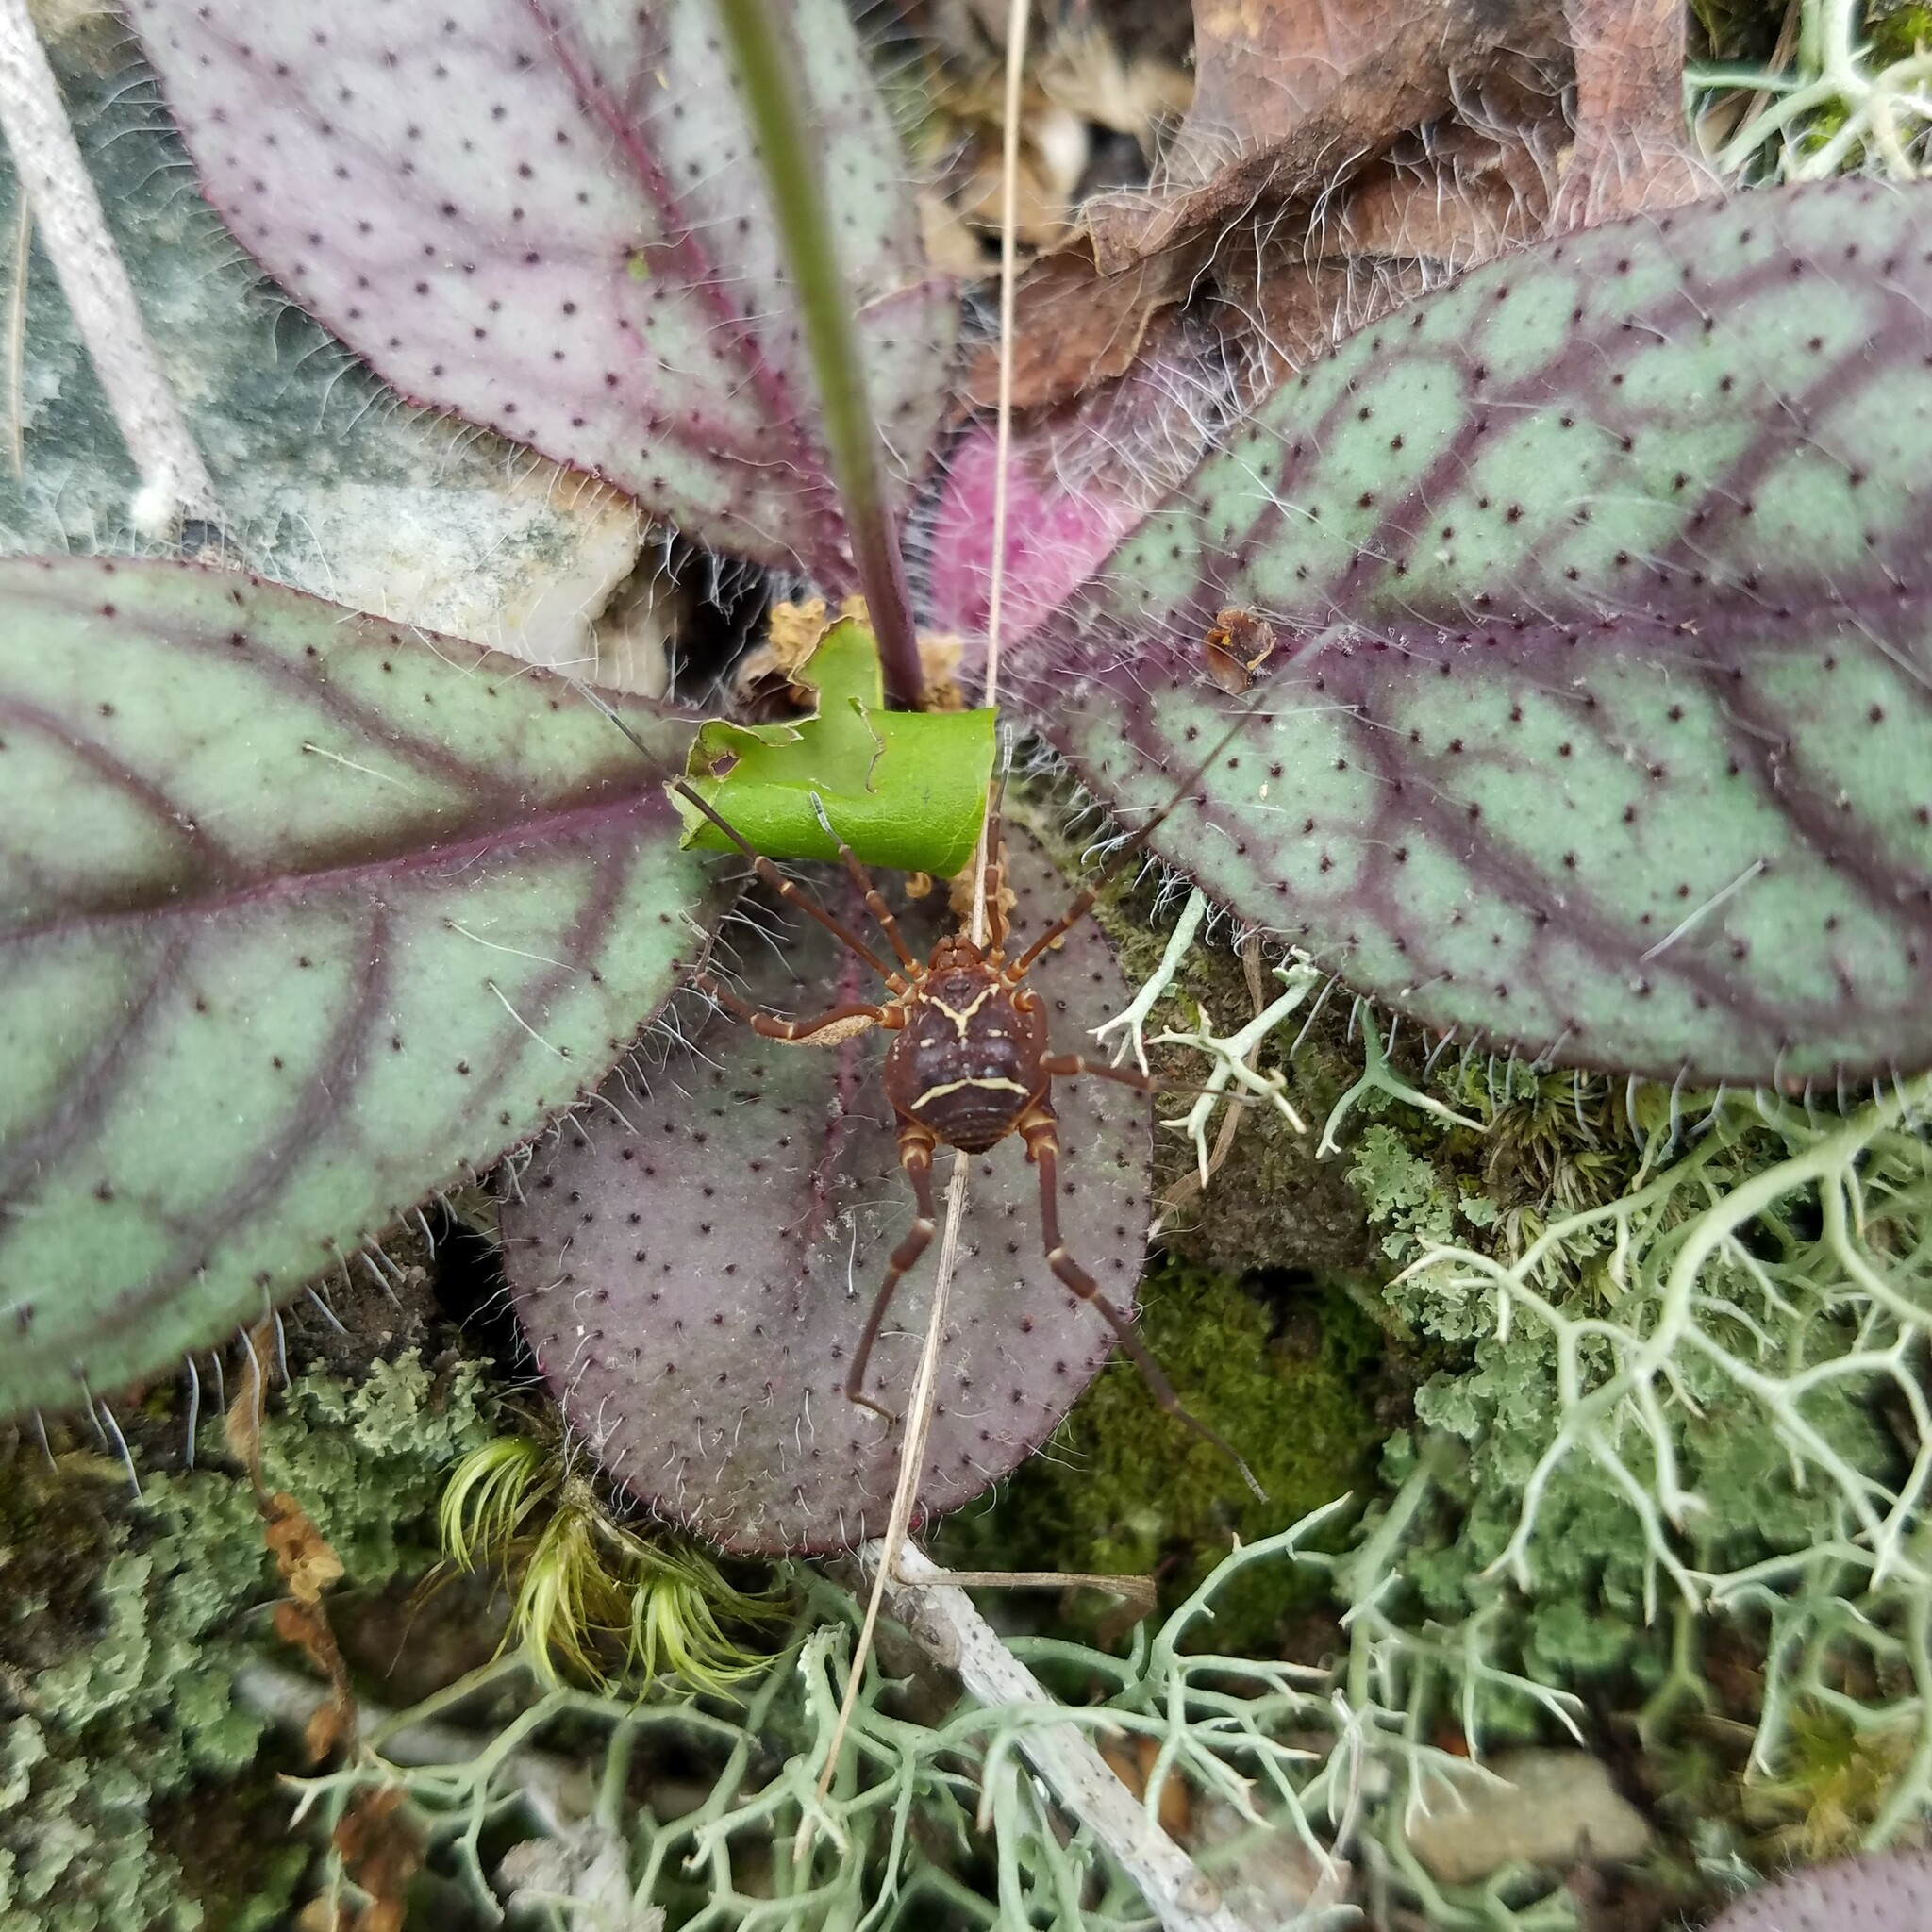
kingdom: Animalia
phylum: Arthropoda
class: Arachnida
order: Opiliones
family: Cosmetidae
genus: Libitioides
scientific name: Libitioides sayi
